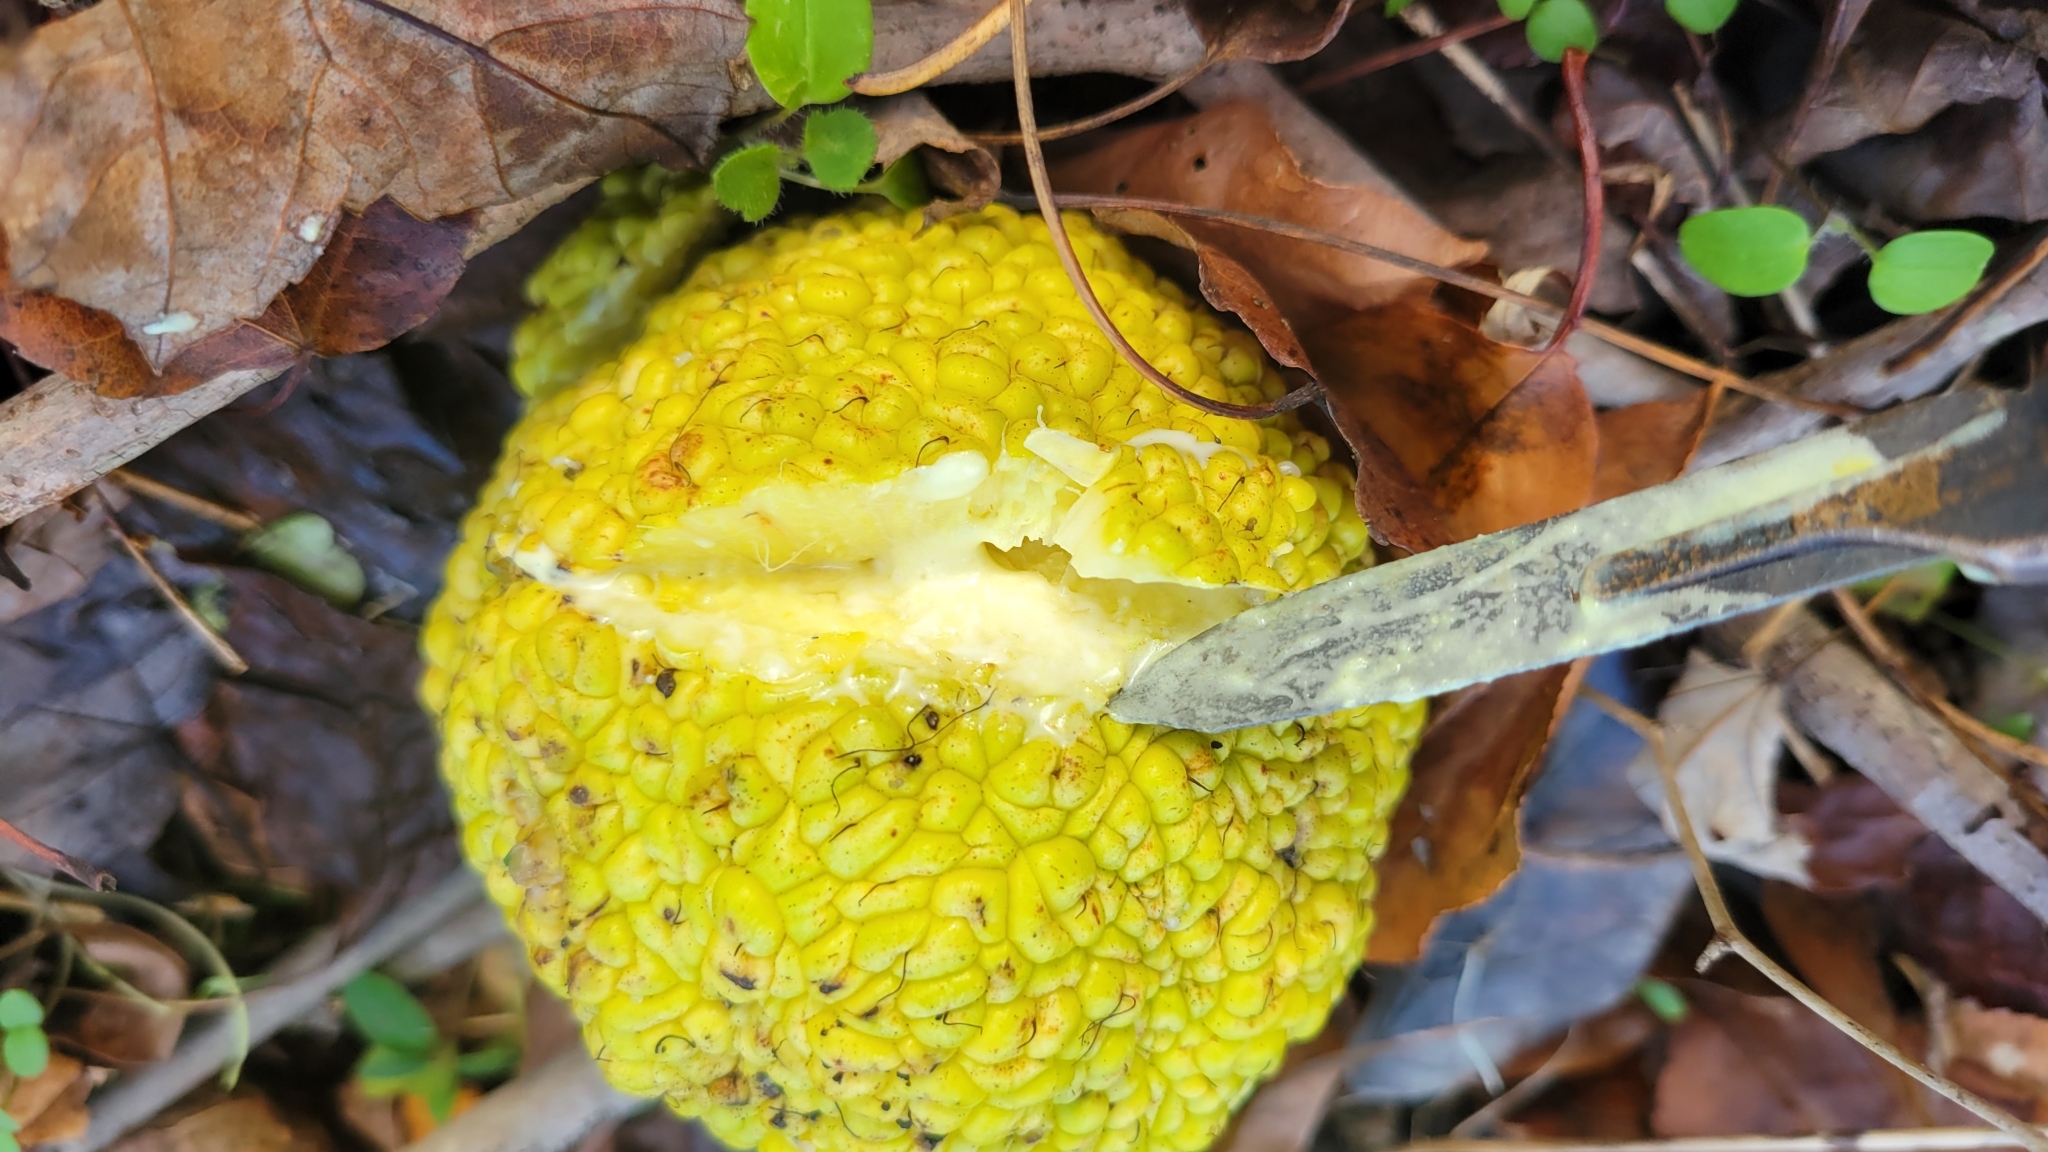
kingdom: Plantae
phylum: Tracheophyta
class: Magnoliopsida
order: Rosales
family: Moraceae
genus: Maclura
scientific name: Maclura pomifera
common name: Osage-orange
